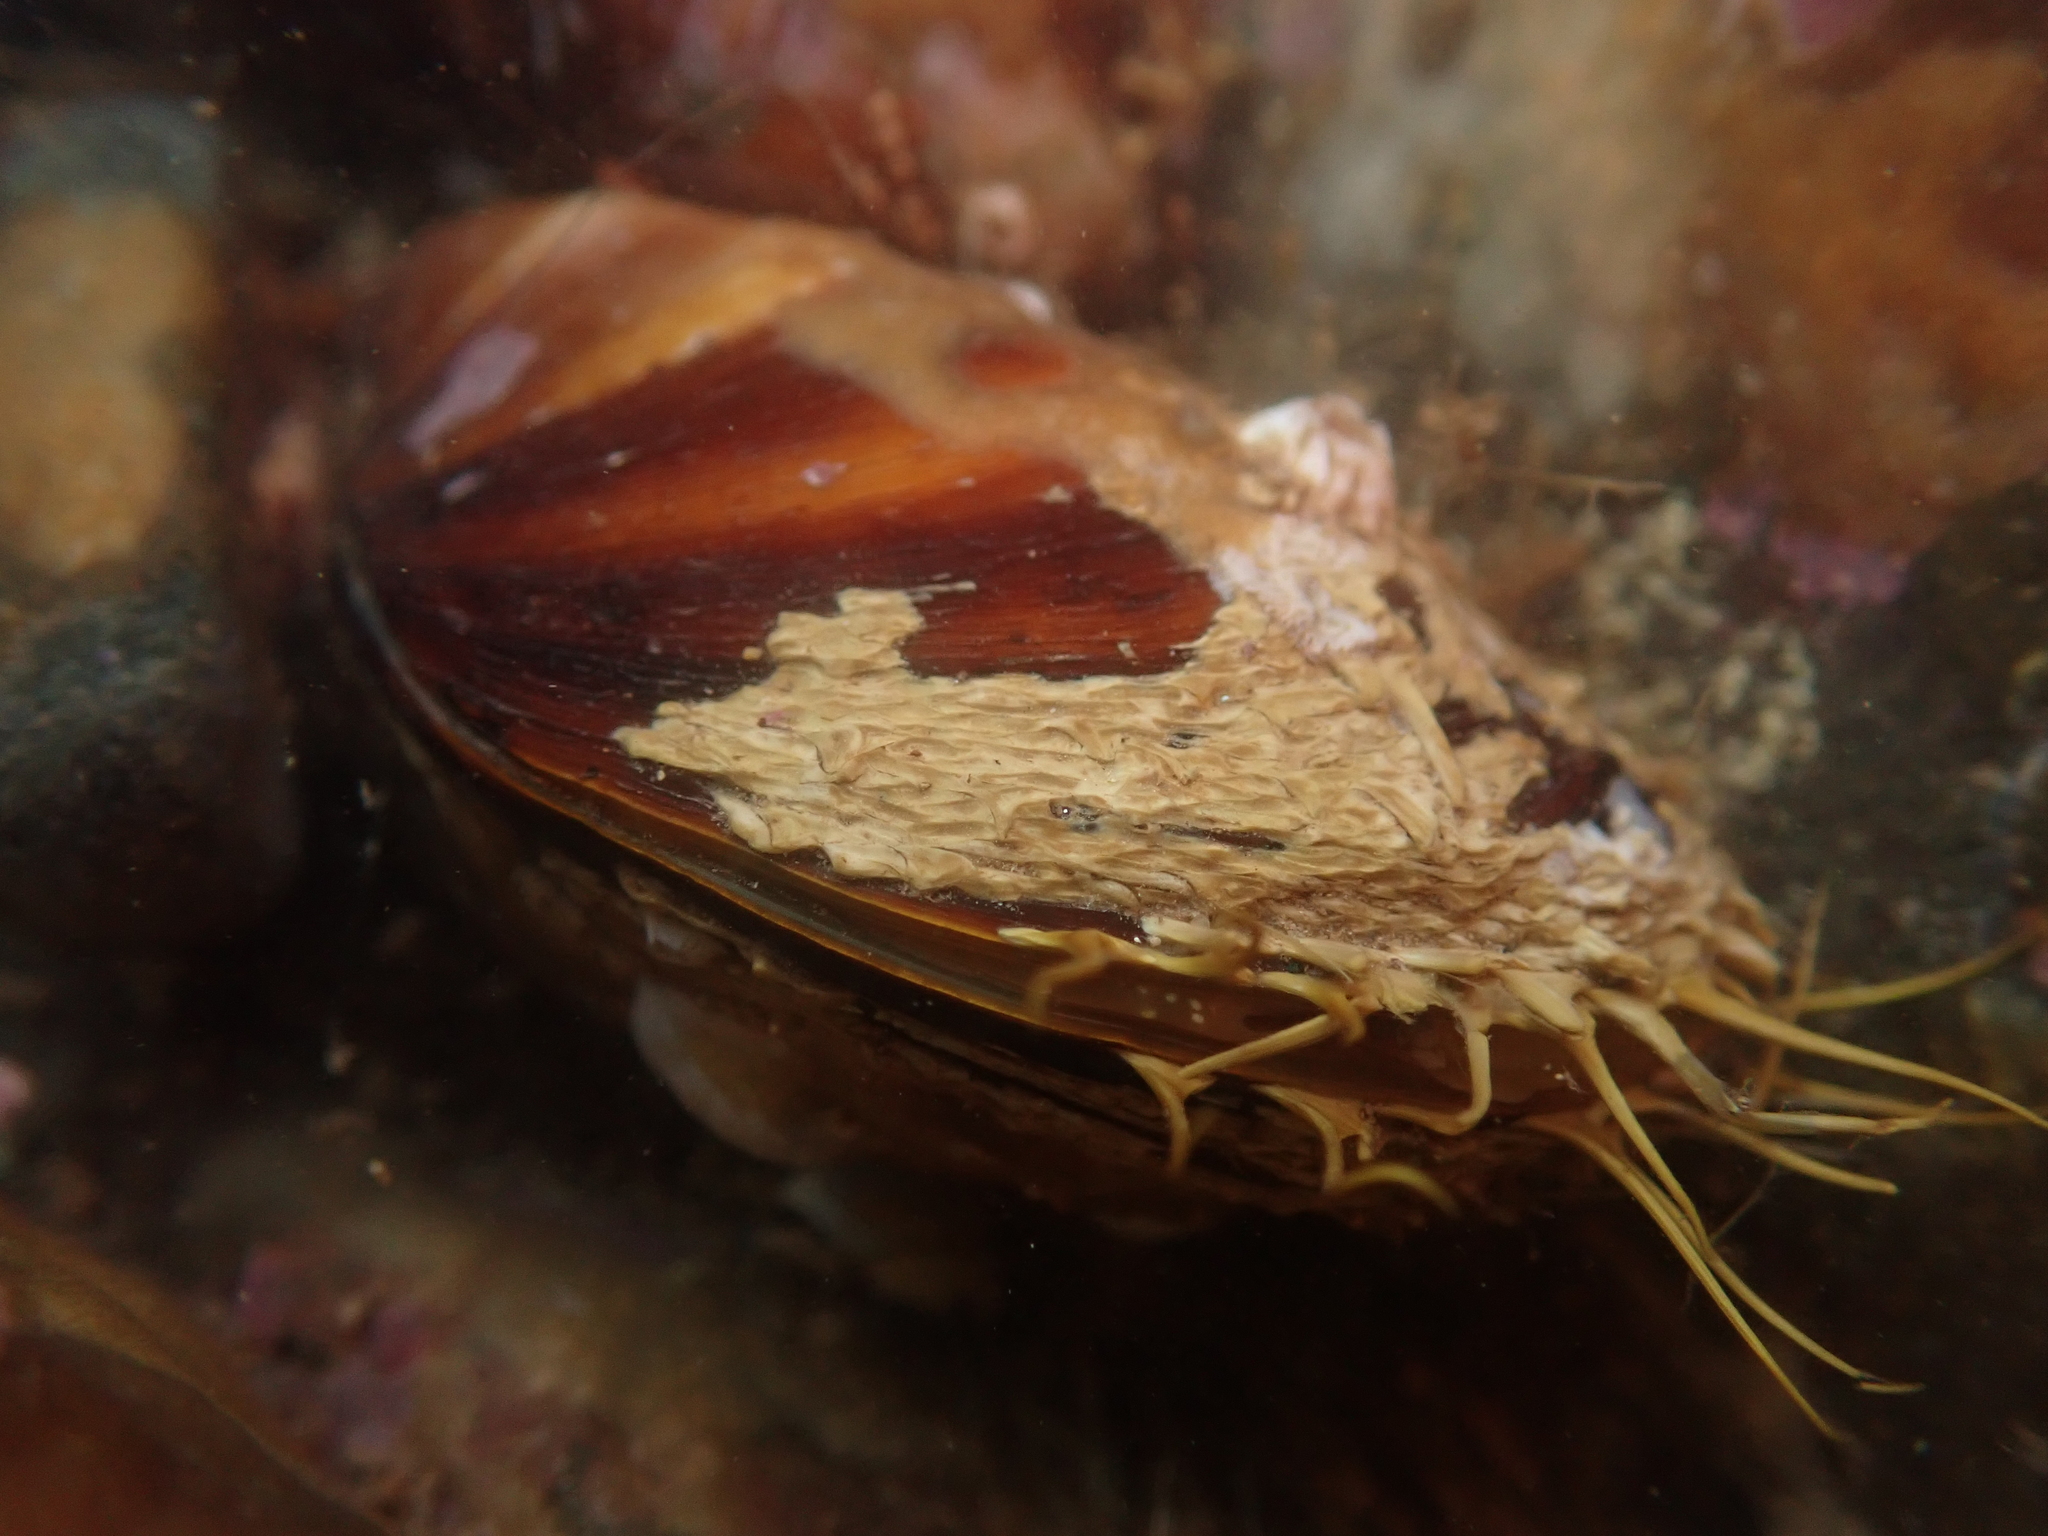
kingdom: Animalia
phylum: Mollusca
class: Bivalvia
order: Mytilida
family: Mytilidae
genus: Modiolus
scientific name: Modiolus modiolus
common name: Horse-mussel
